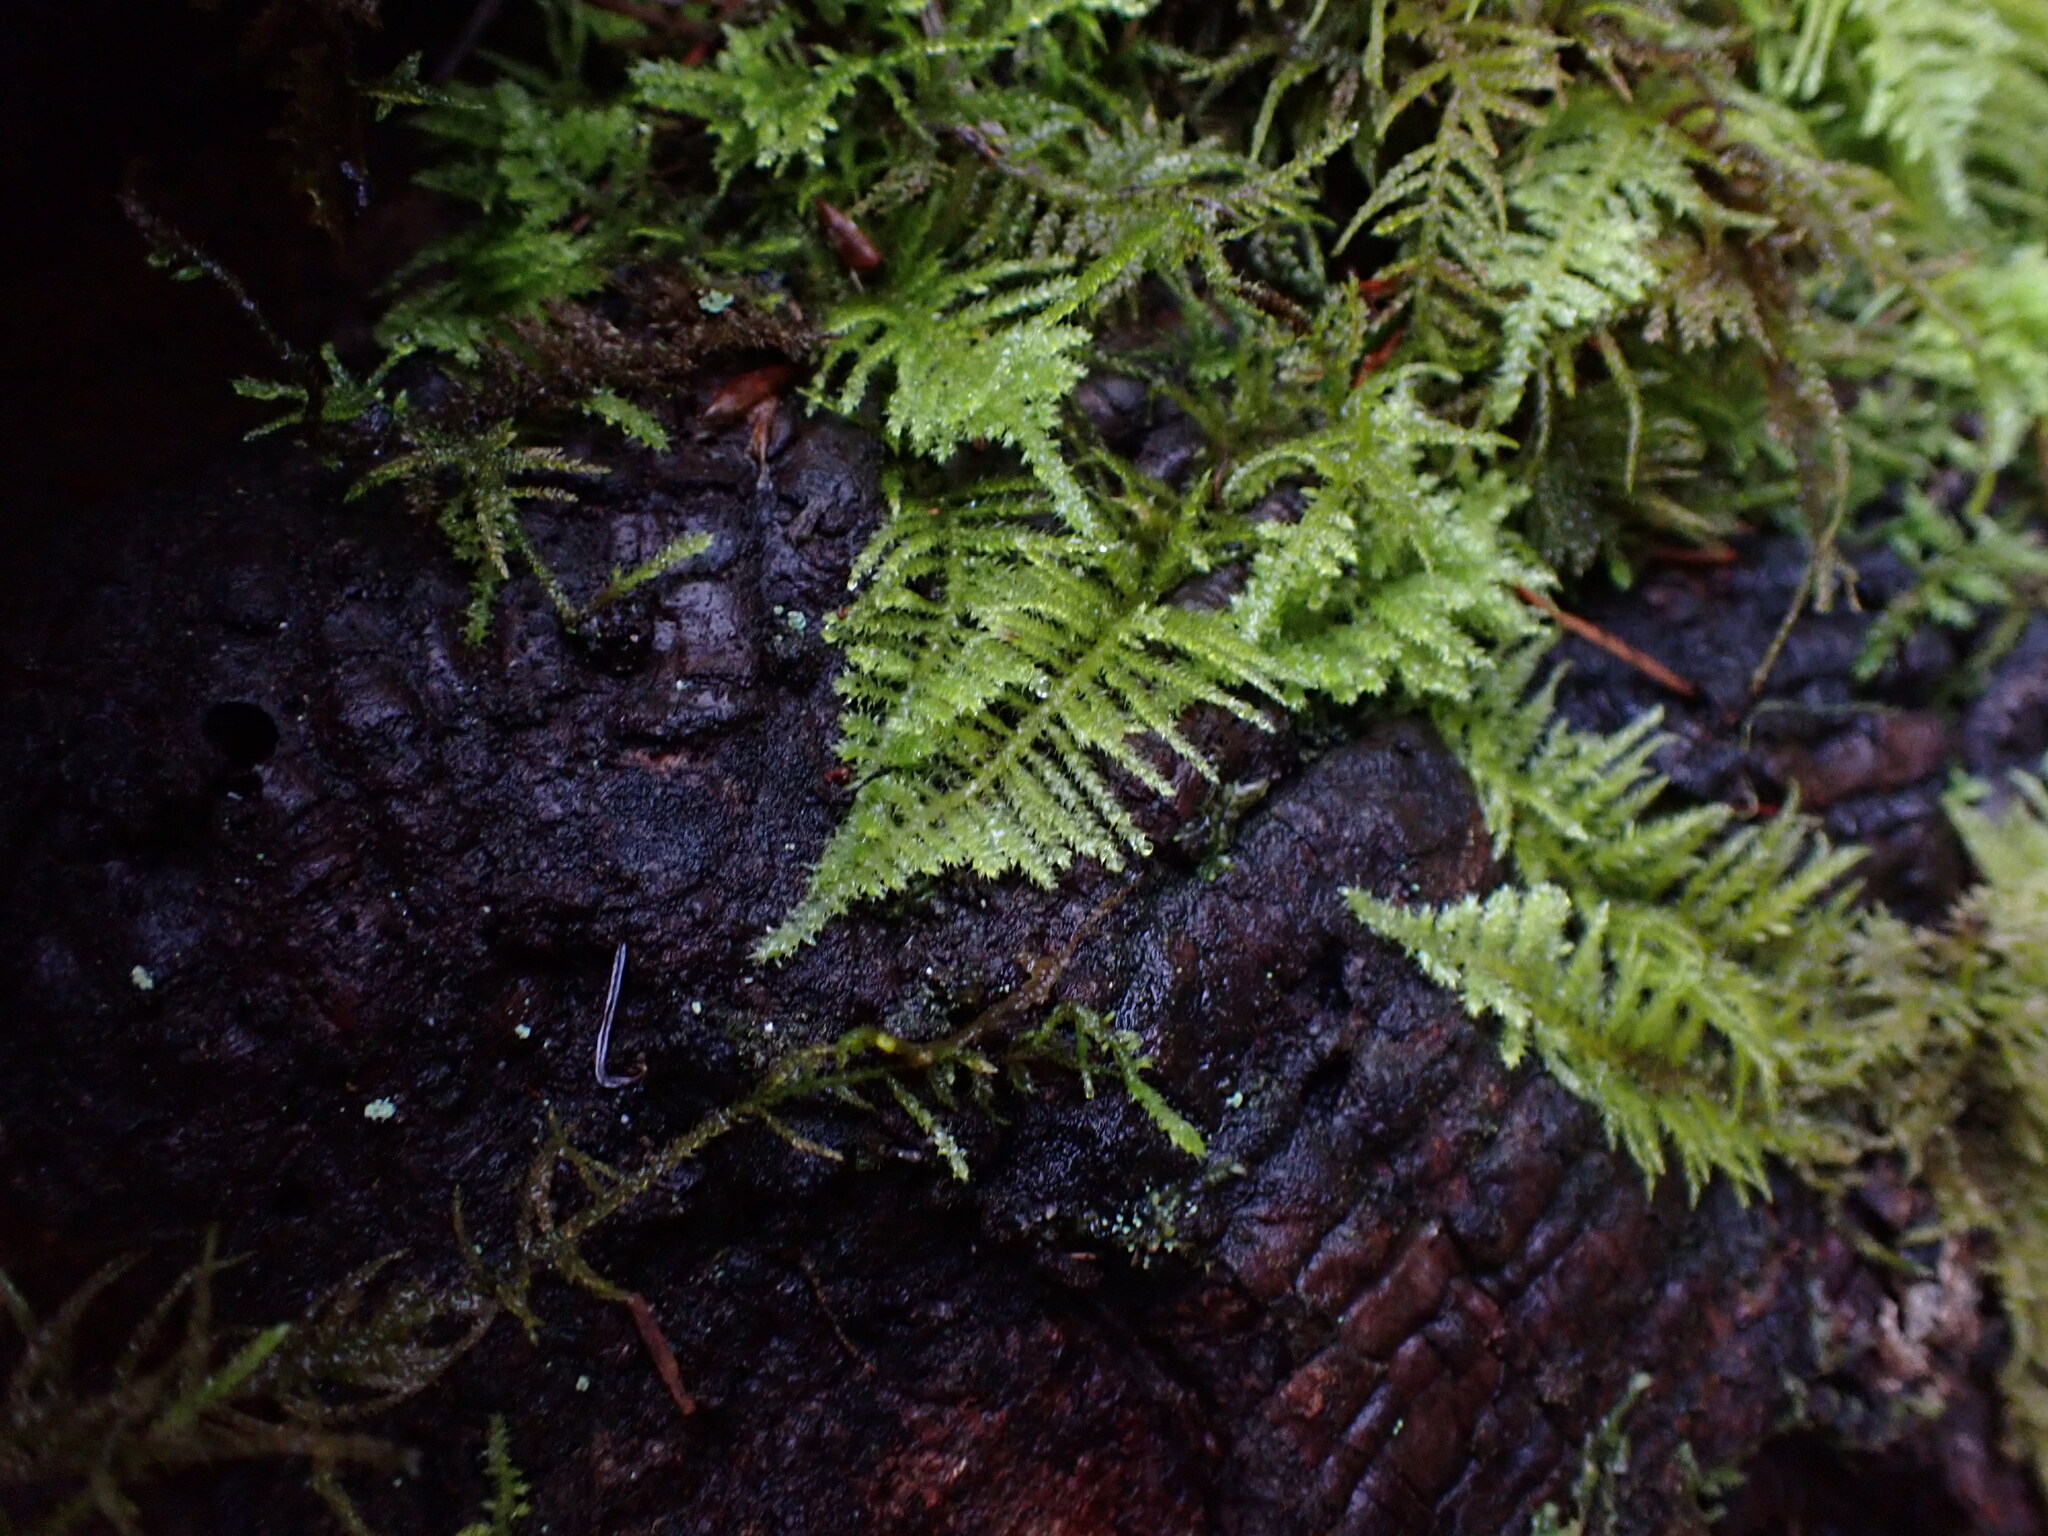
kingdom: Plantae
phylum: Bryophyta
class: Bryopsida
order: Hypnales
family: Brachytheciaceae
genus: Kindbergia
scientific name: Kindbergia oregana
